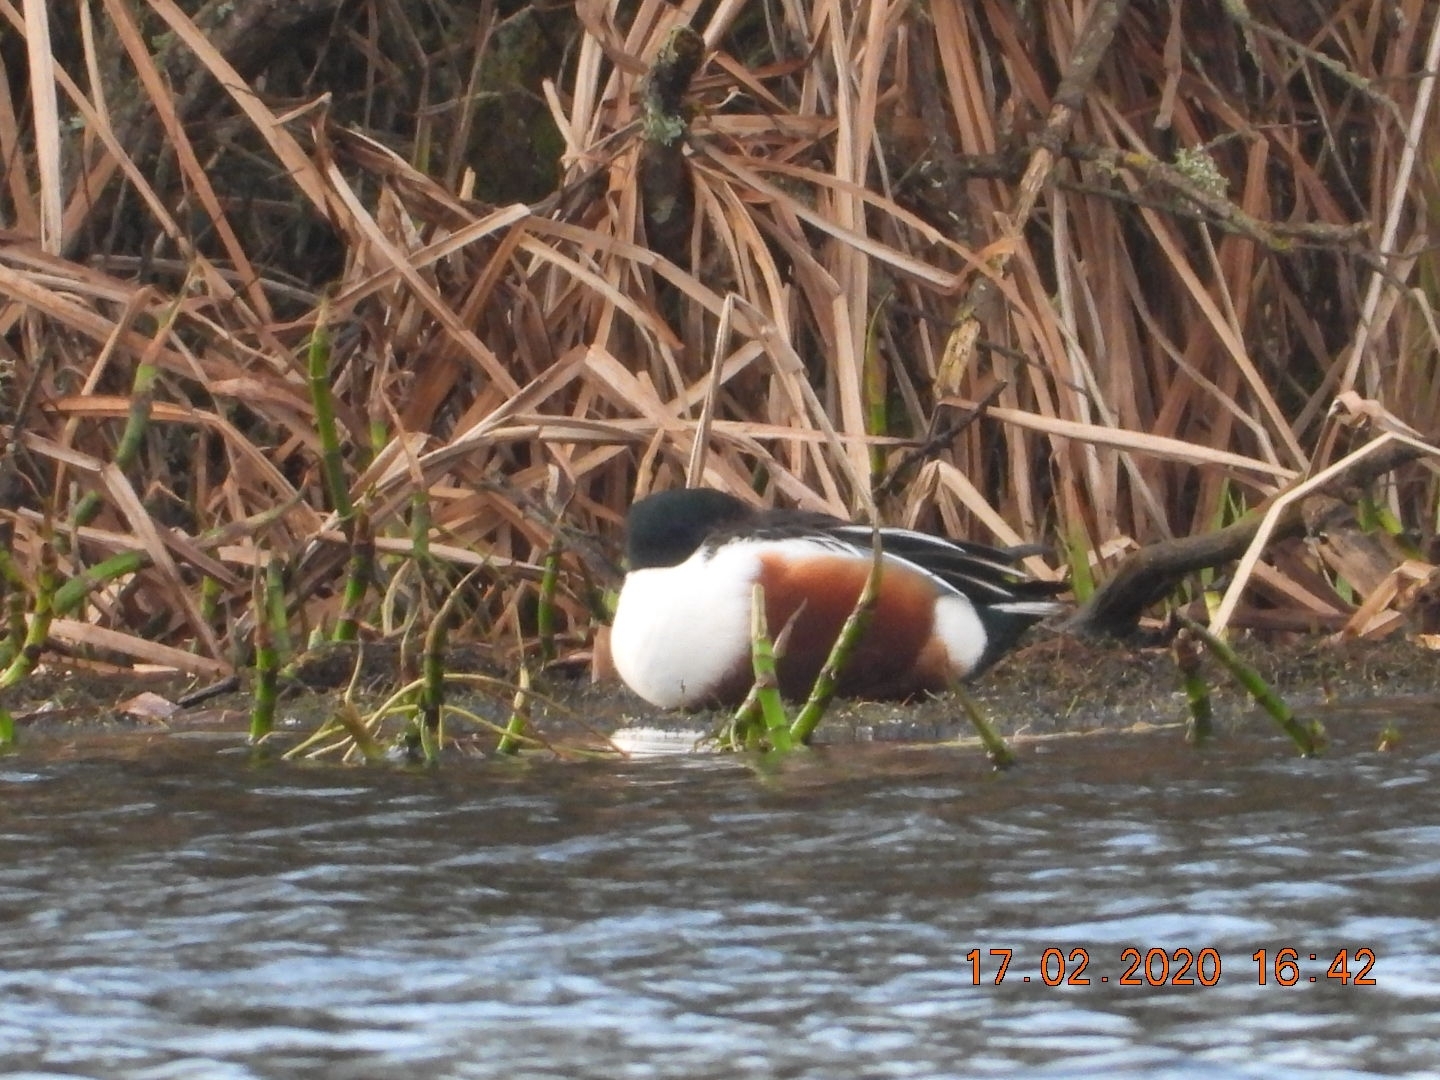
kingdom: Animalia
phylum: Chordata
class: Aves
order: Anseriformes
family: Anatidae
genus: Spatula
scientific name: Spatula clypeata
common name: Northern shoveler
